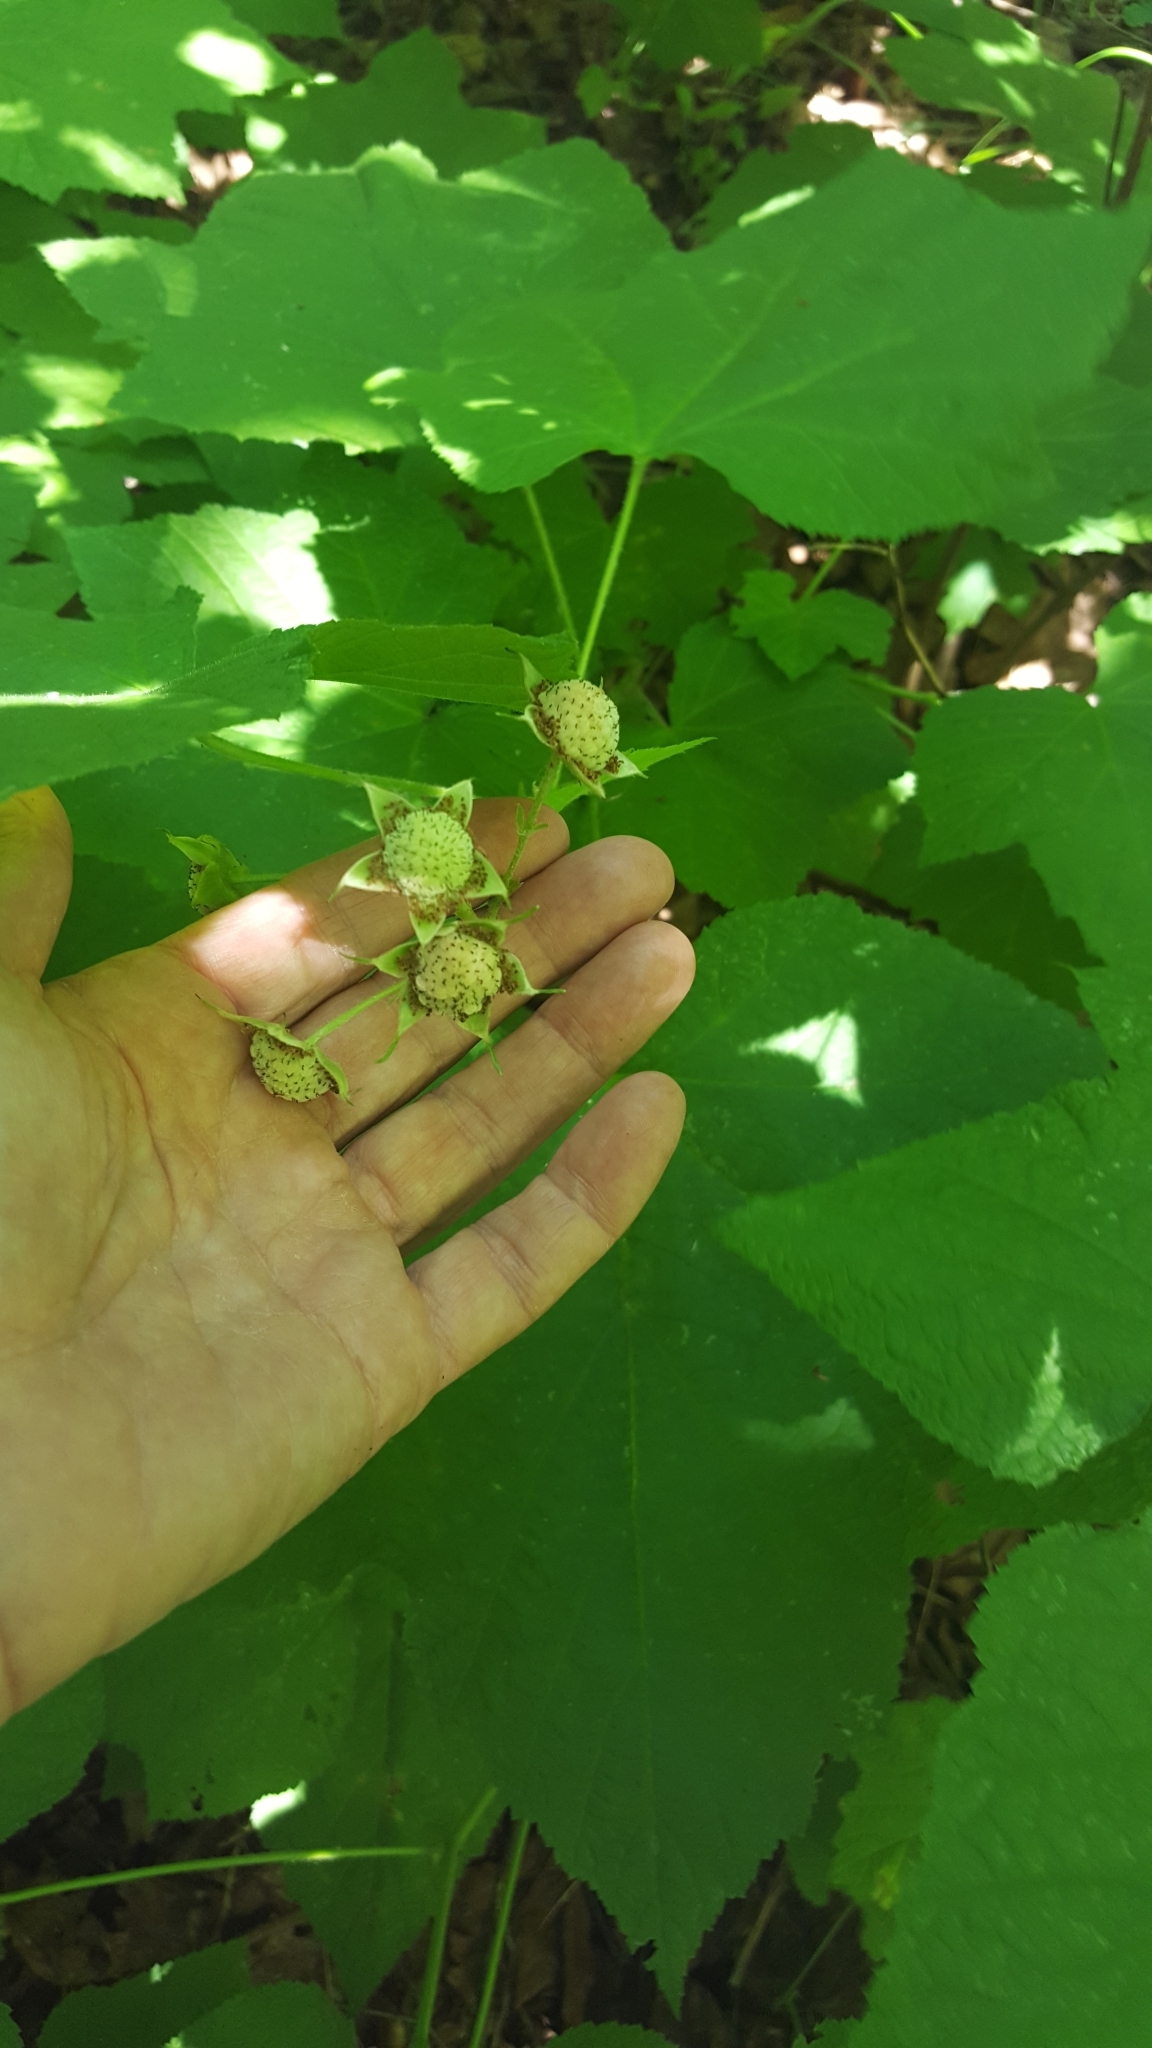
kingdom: Plantae
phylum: Tracheophyta
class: Magnoliopsida
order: Rosales
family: Rosaceae
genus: Rubus
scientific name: Rubus parviflorus
